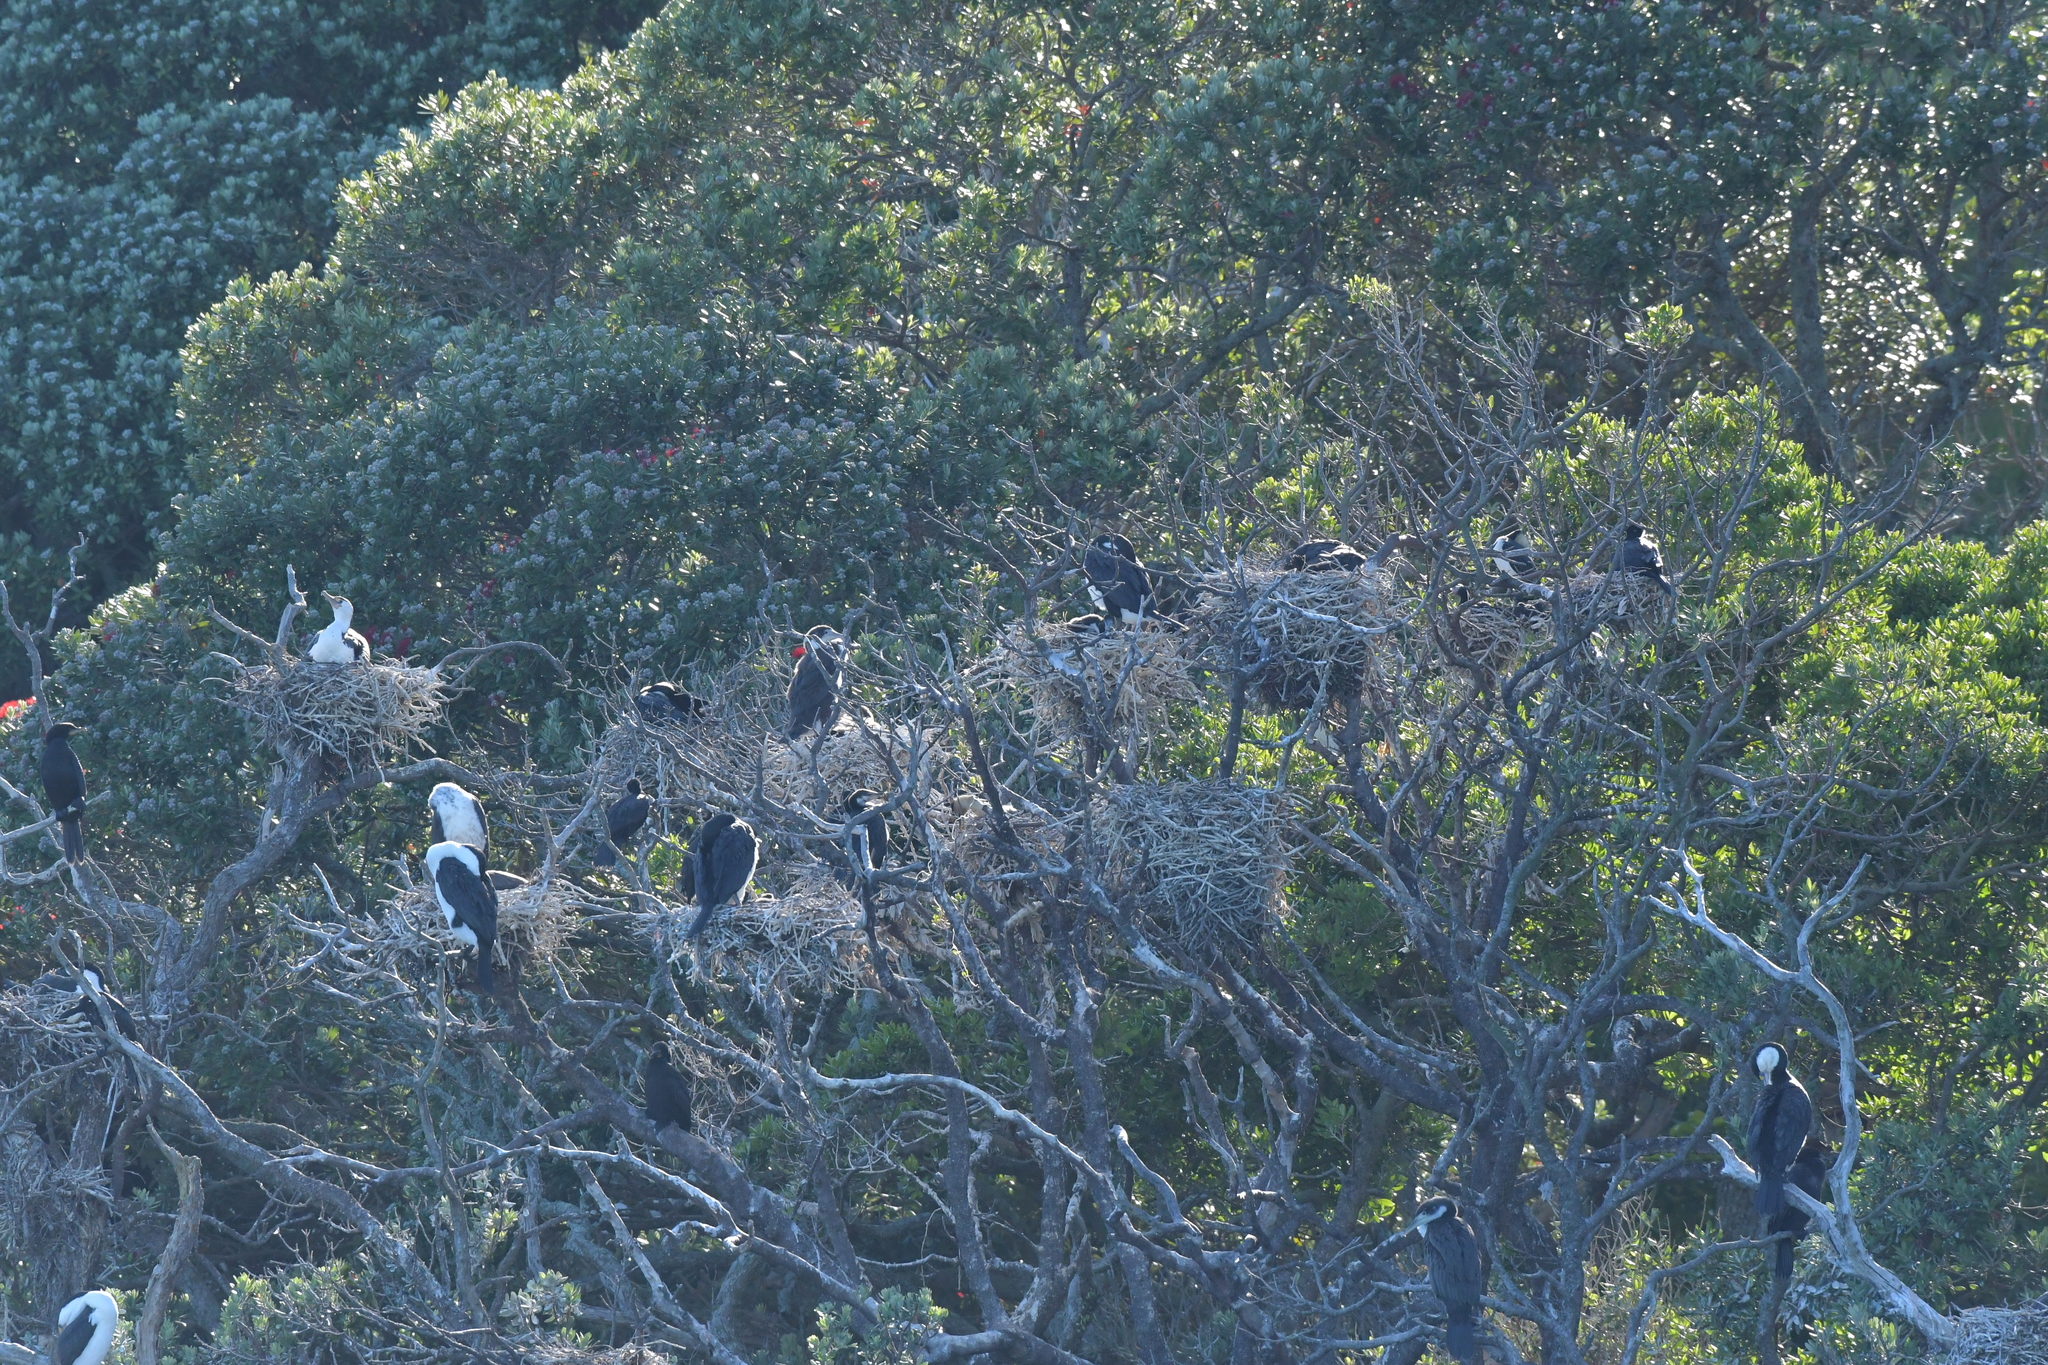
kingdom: Animalia
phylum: Chordata
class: Aves
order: Suliformes
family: Phalacrocoracidae
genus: Phalacrocorax
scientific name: Phalacrocorax varius
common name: Pied cormorant
